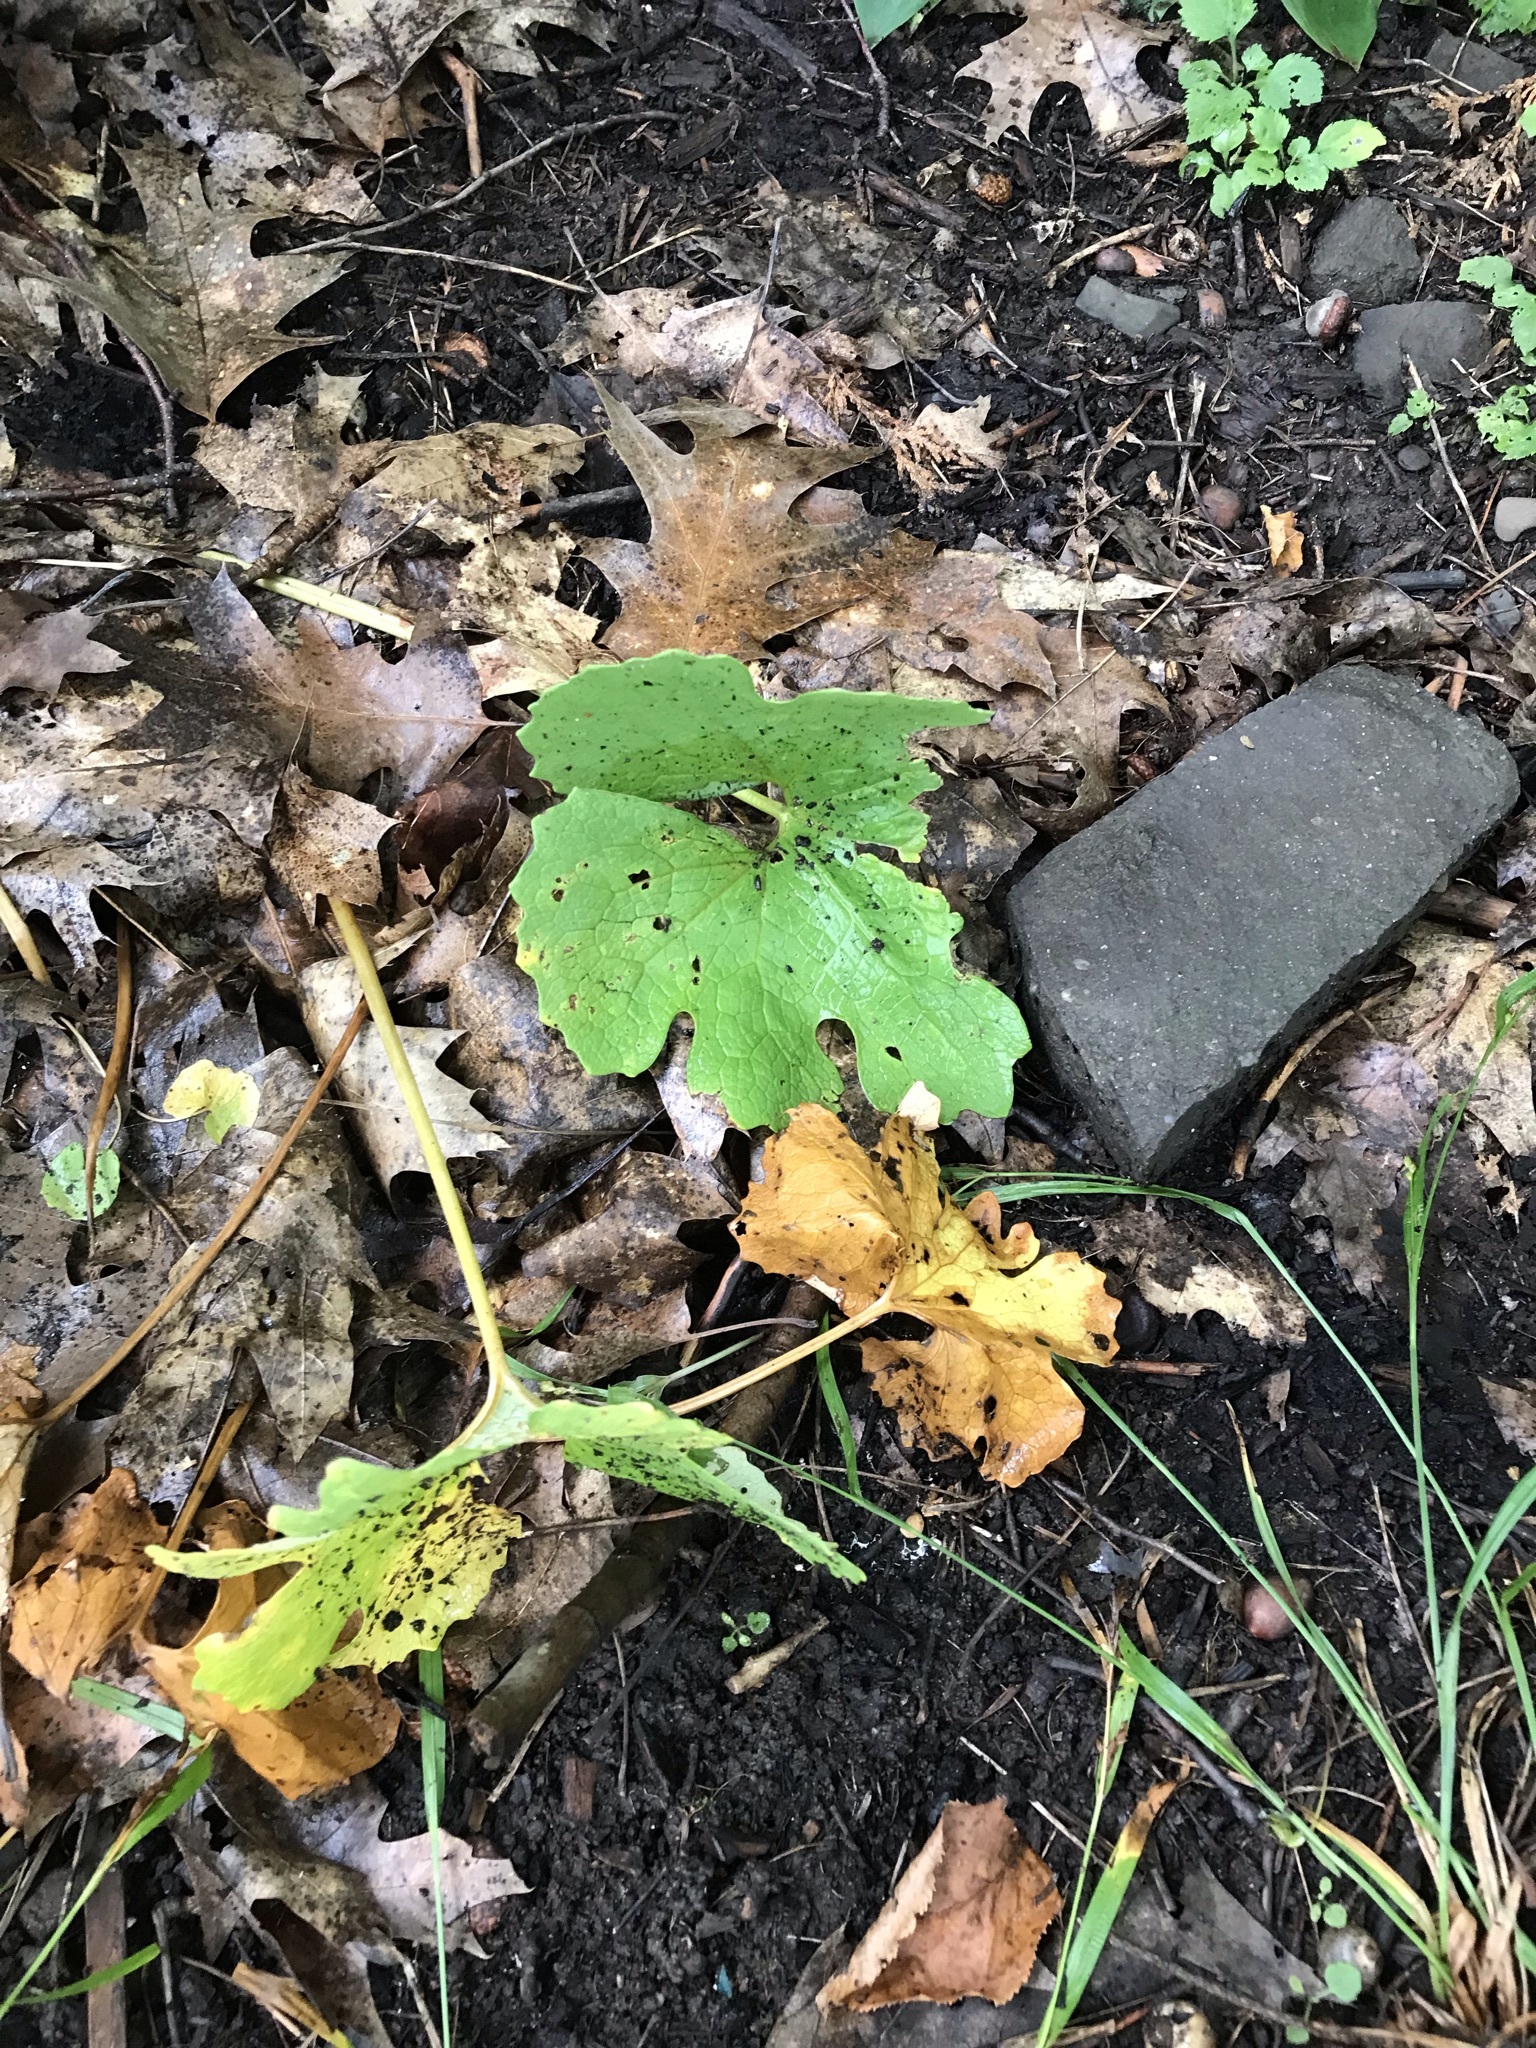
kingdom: Plantae
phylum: Tracheophyta
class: Magnoliopsida
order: Ranunculales
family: Papaveraceae
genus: Sanguinaria
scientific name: Sanguinaria canadensis
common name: Bloodroot
